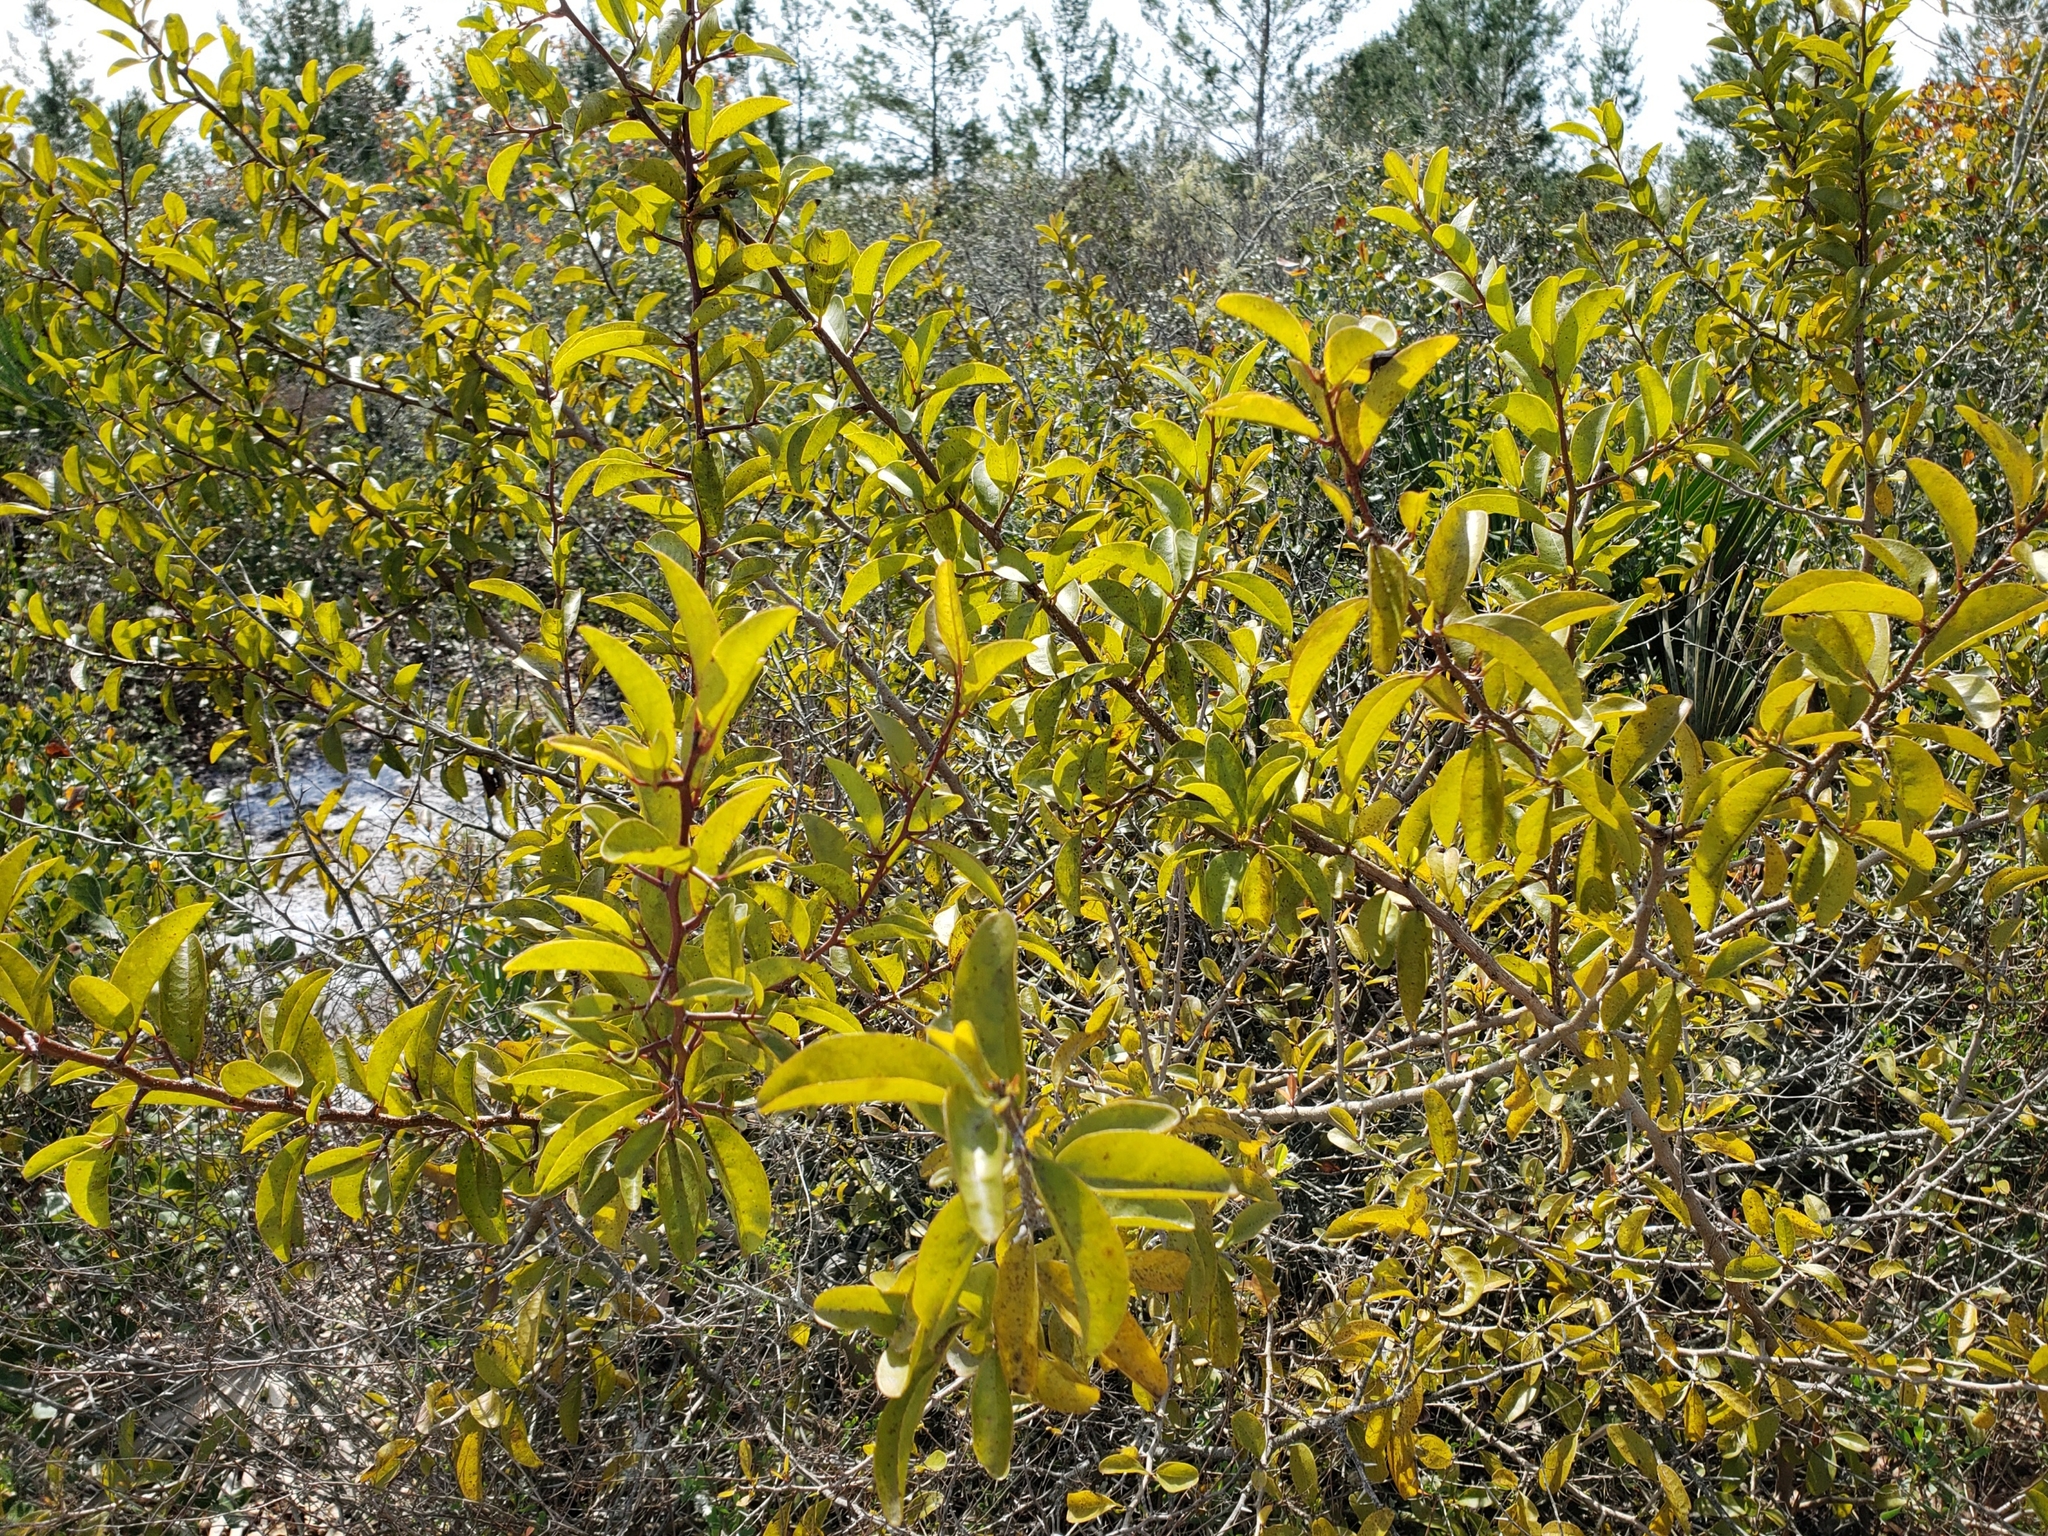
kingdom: Plantae
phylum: Tracheophyta
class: Magnoliopsida
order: Santalales
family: Ximeniaceae
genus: Ximenia
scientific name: Ximenia americana
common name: Tallowwood
